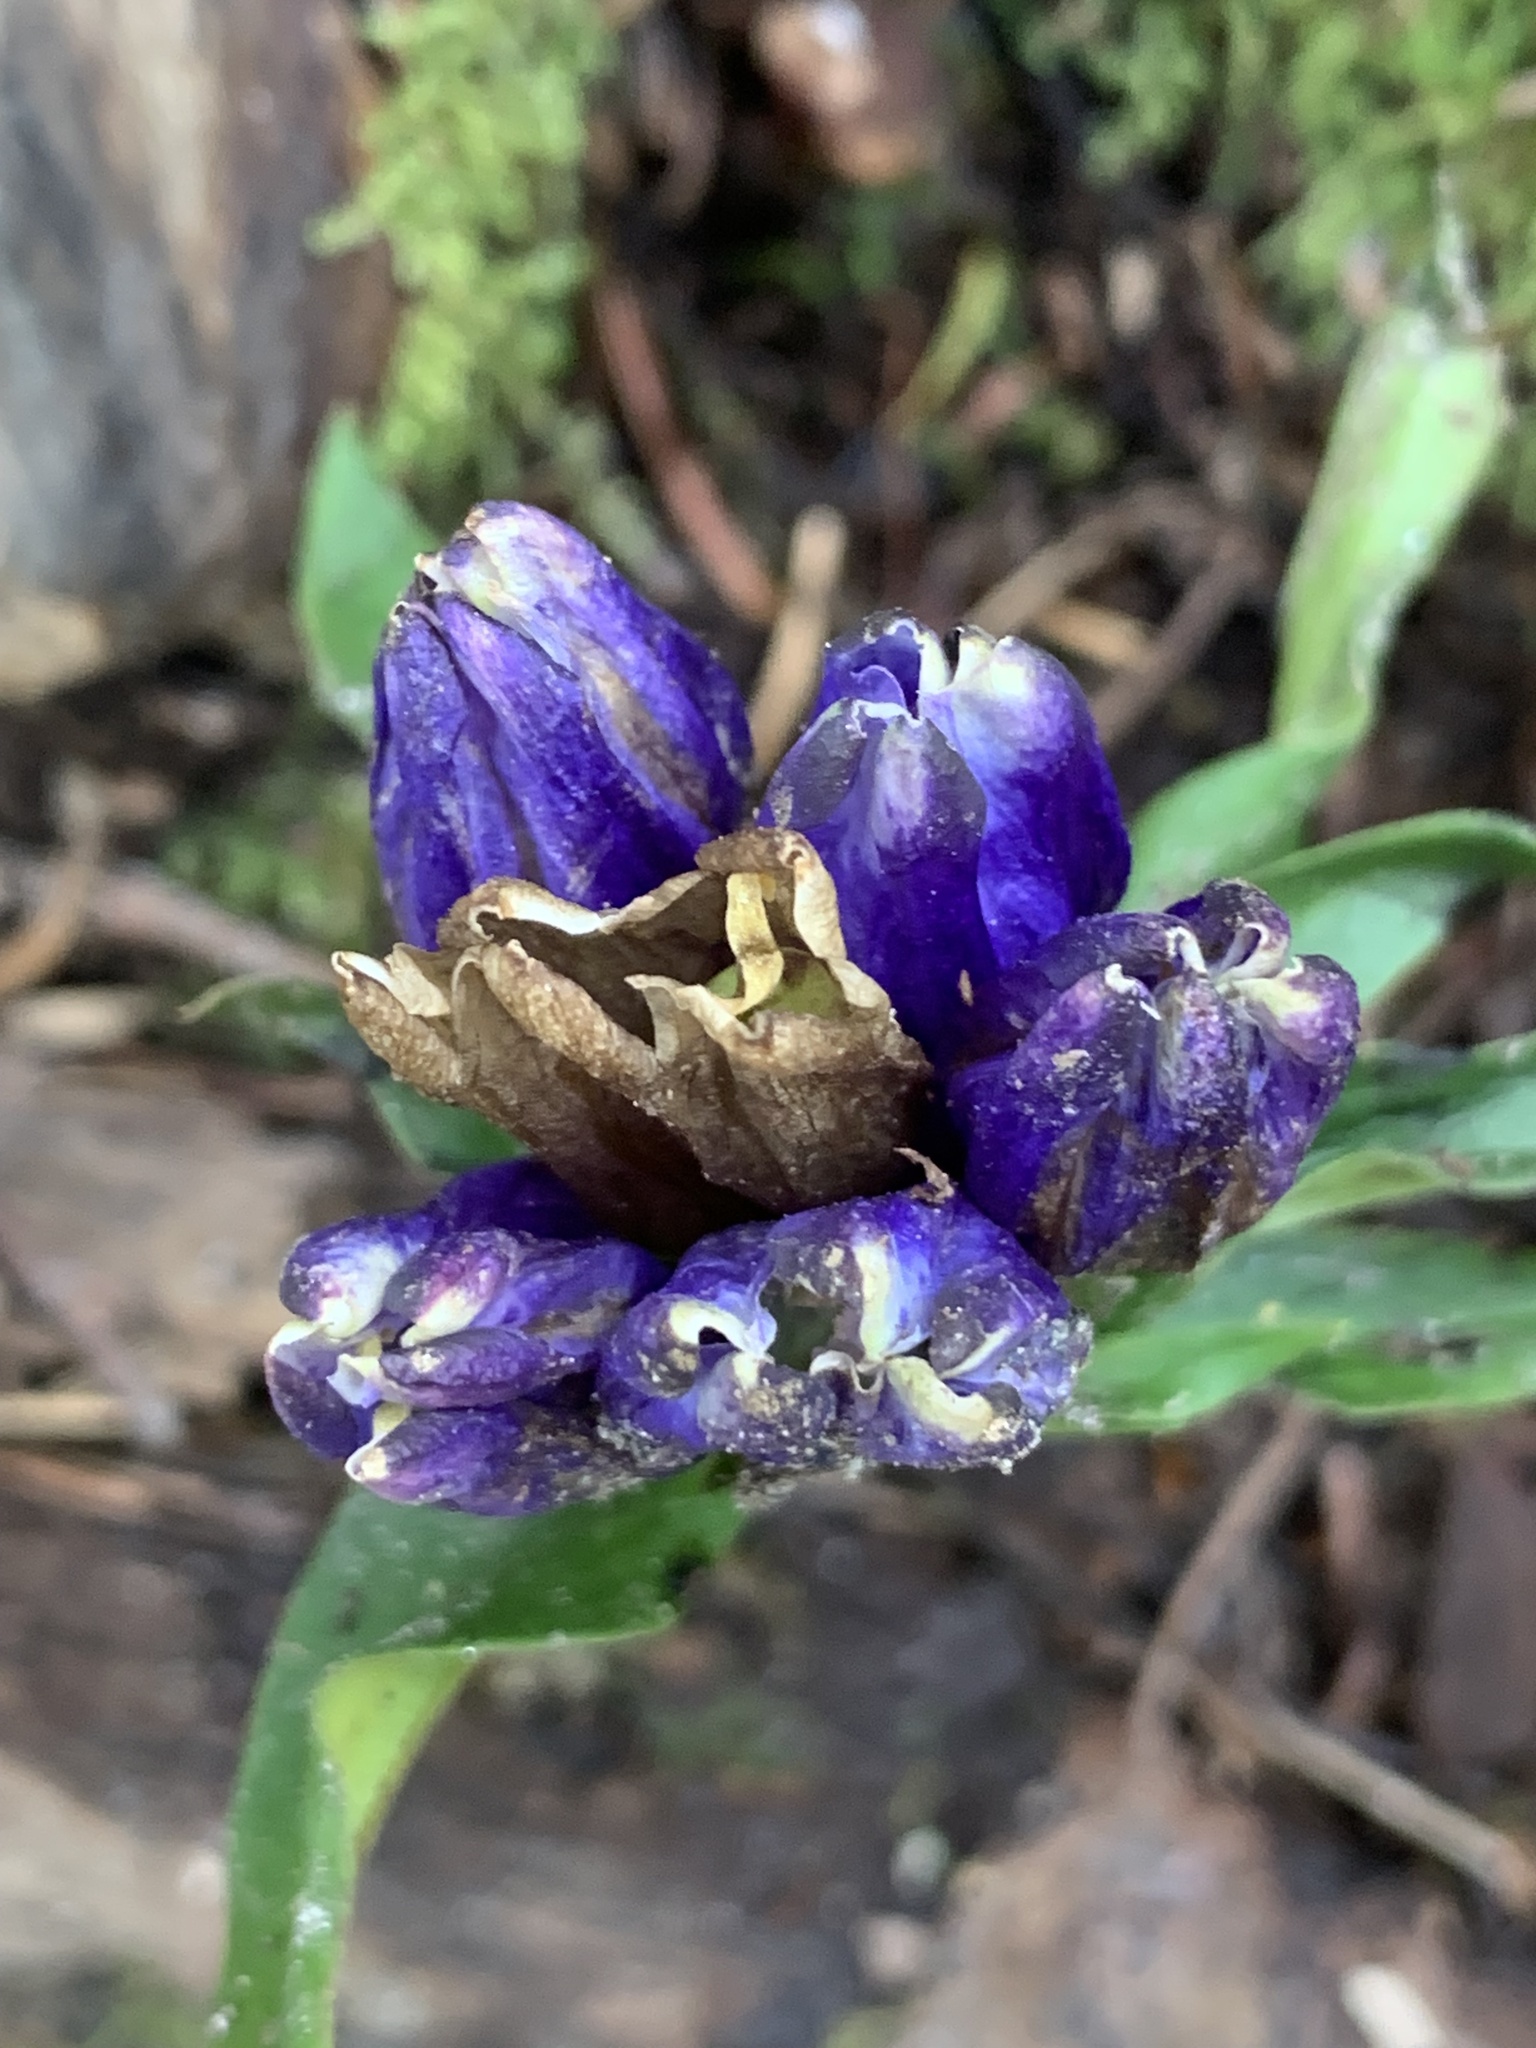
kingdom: Plantae
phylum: Tracheophyta
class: Magnoliopsida
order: Gentianales
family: Gentianaceae
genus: Gentiana
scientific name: Gentiana linearis
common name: Bastard gentian
